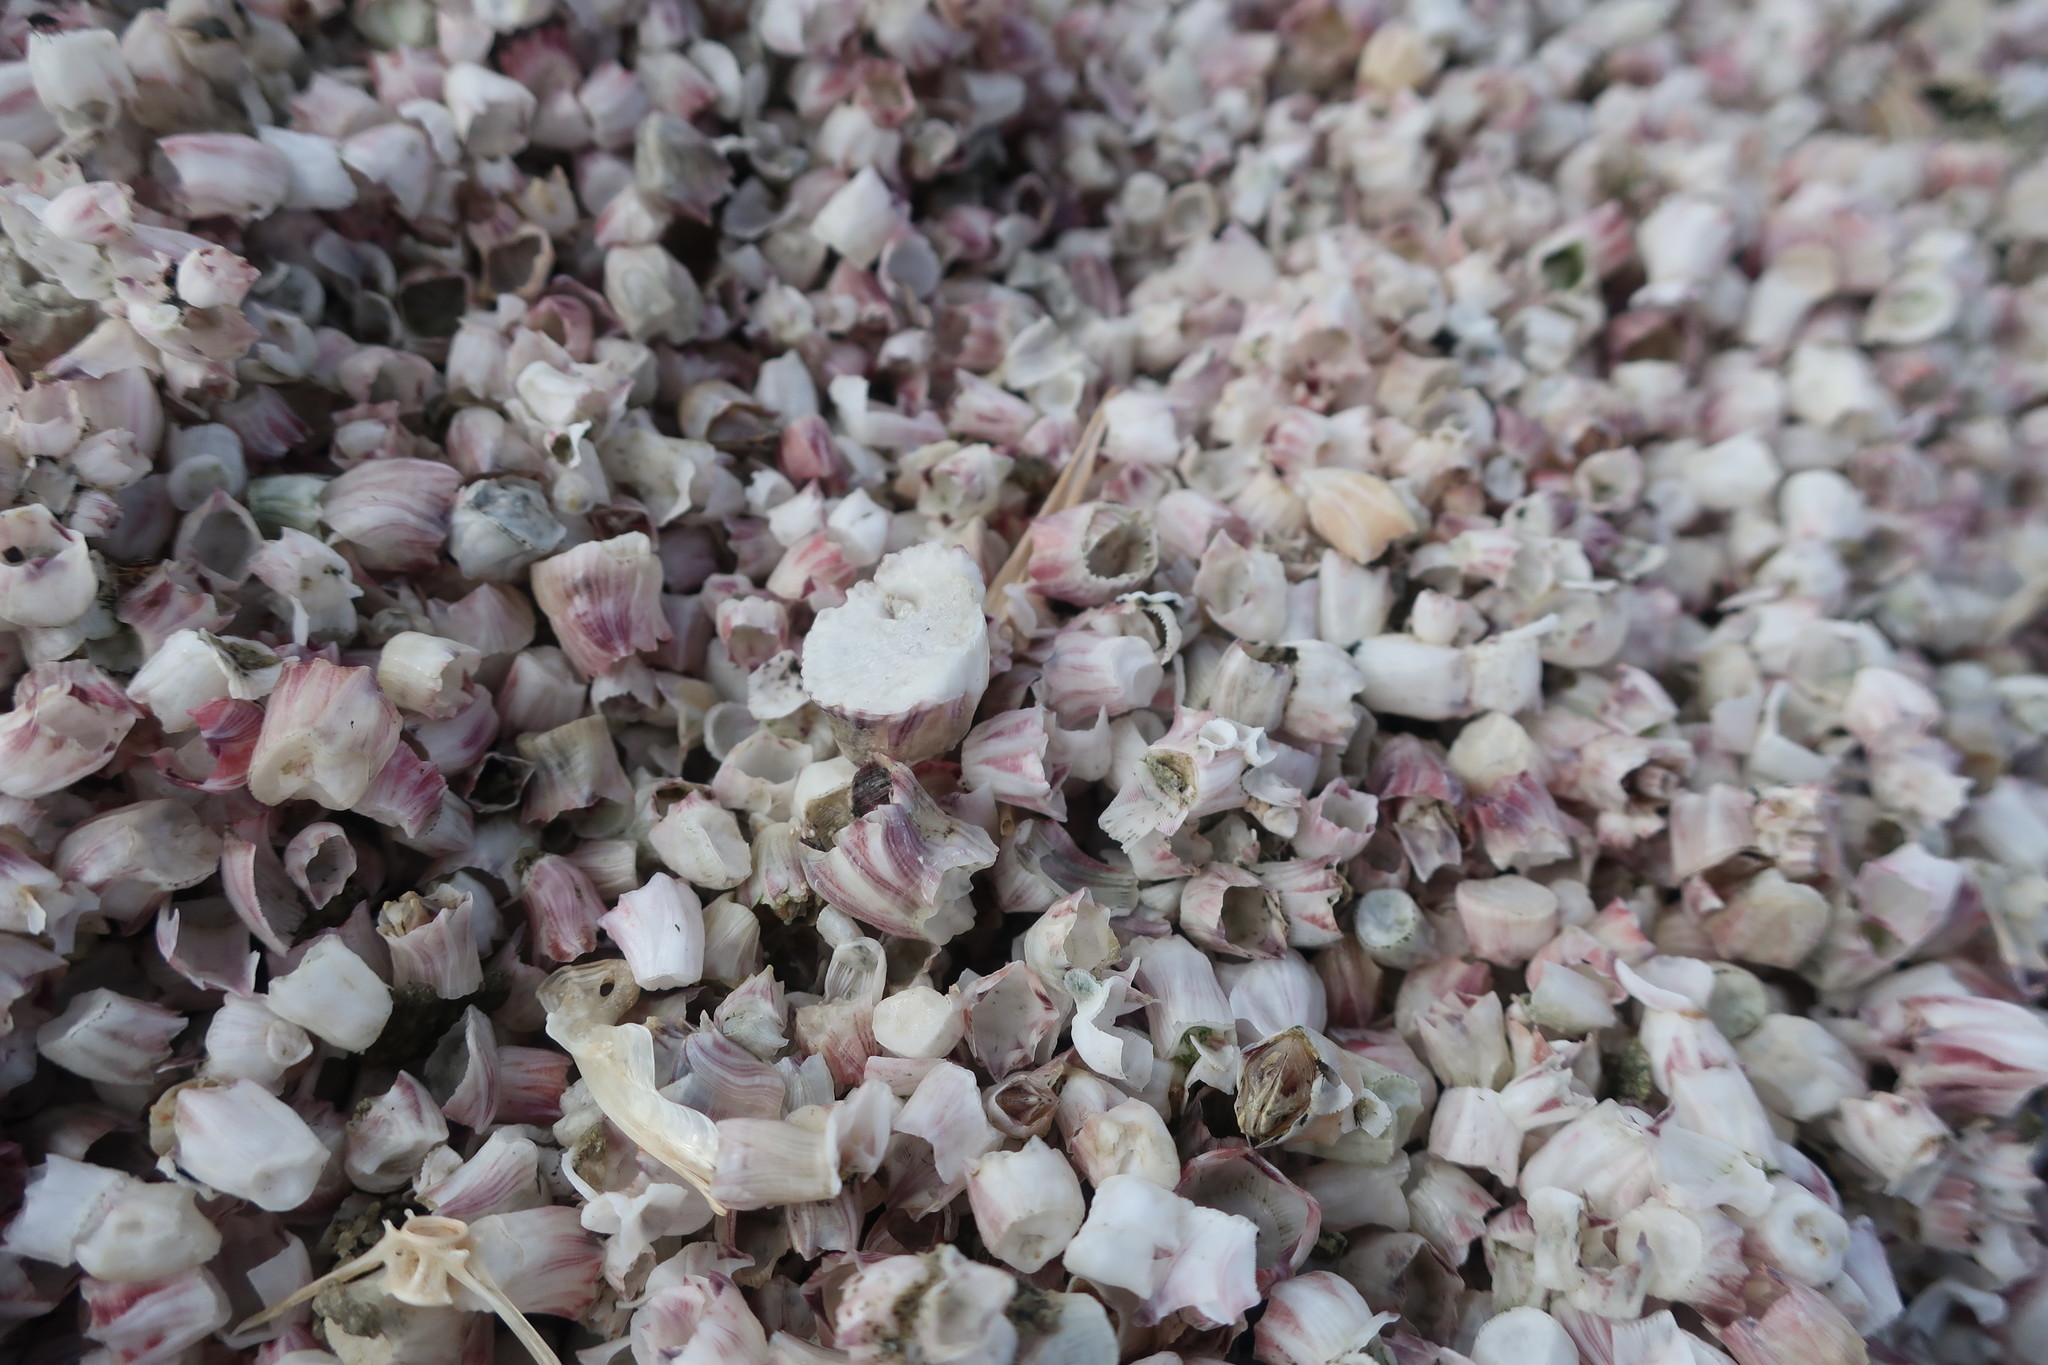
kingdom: Animalia
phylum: Arthropoda
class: Maxillopoda
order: Sessilia
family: Balanidae
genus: Amphibalanus
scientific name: Amphibalanus amphitrite
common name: Striped acorn barnacle
